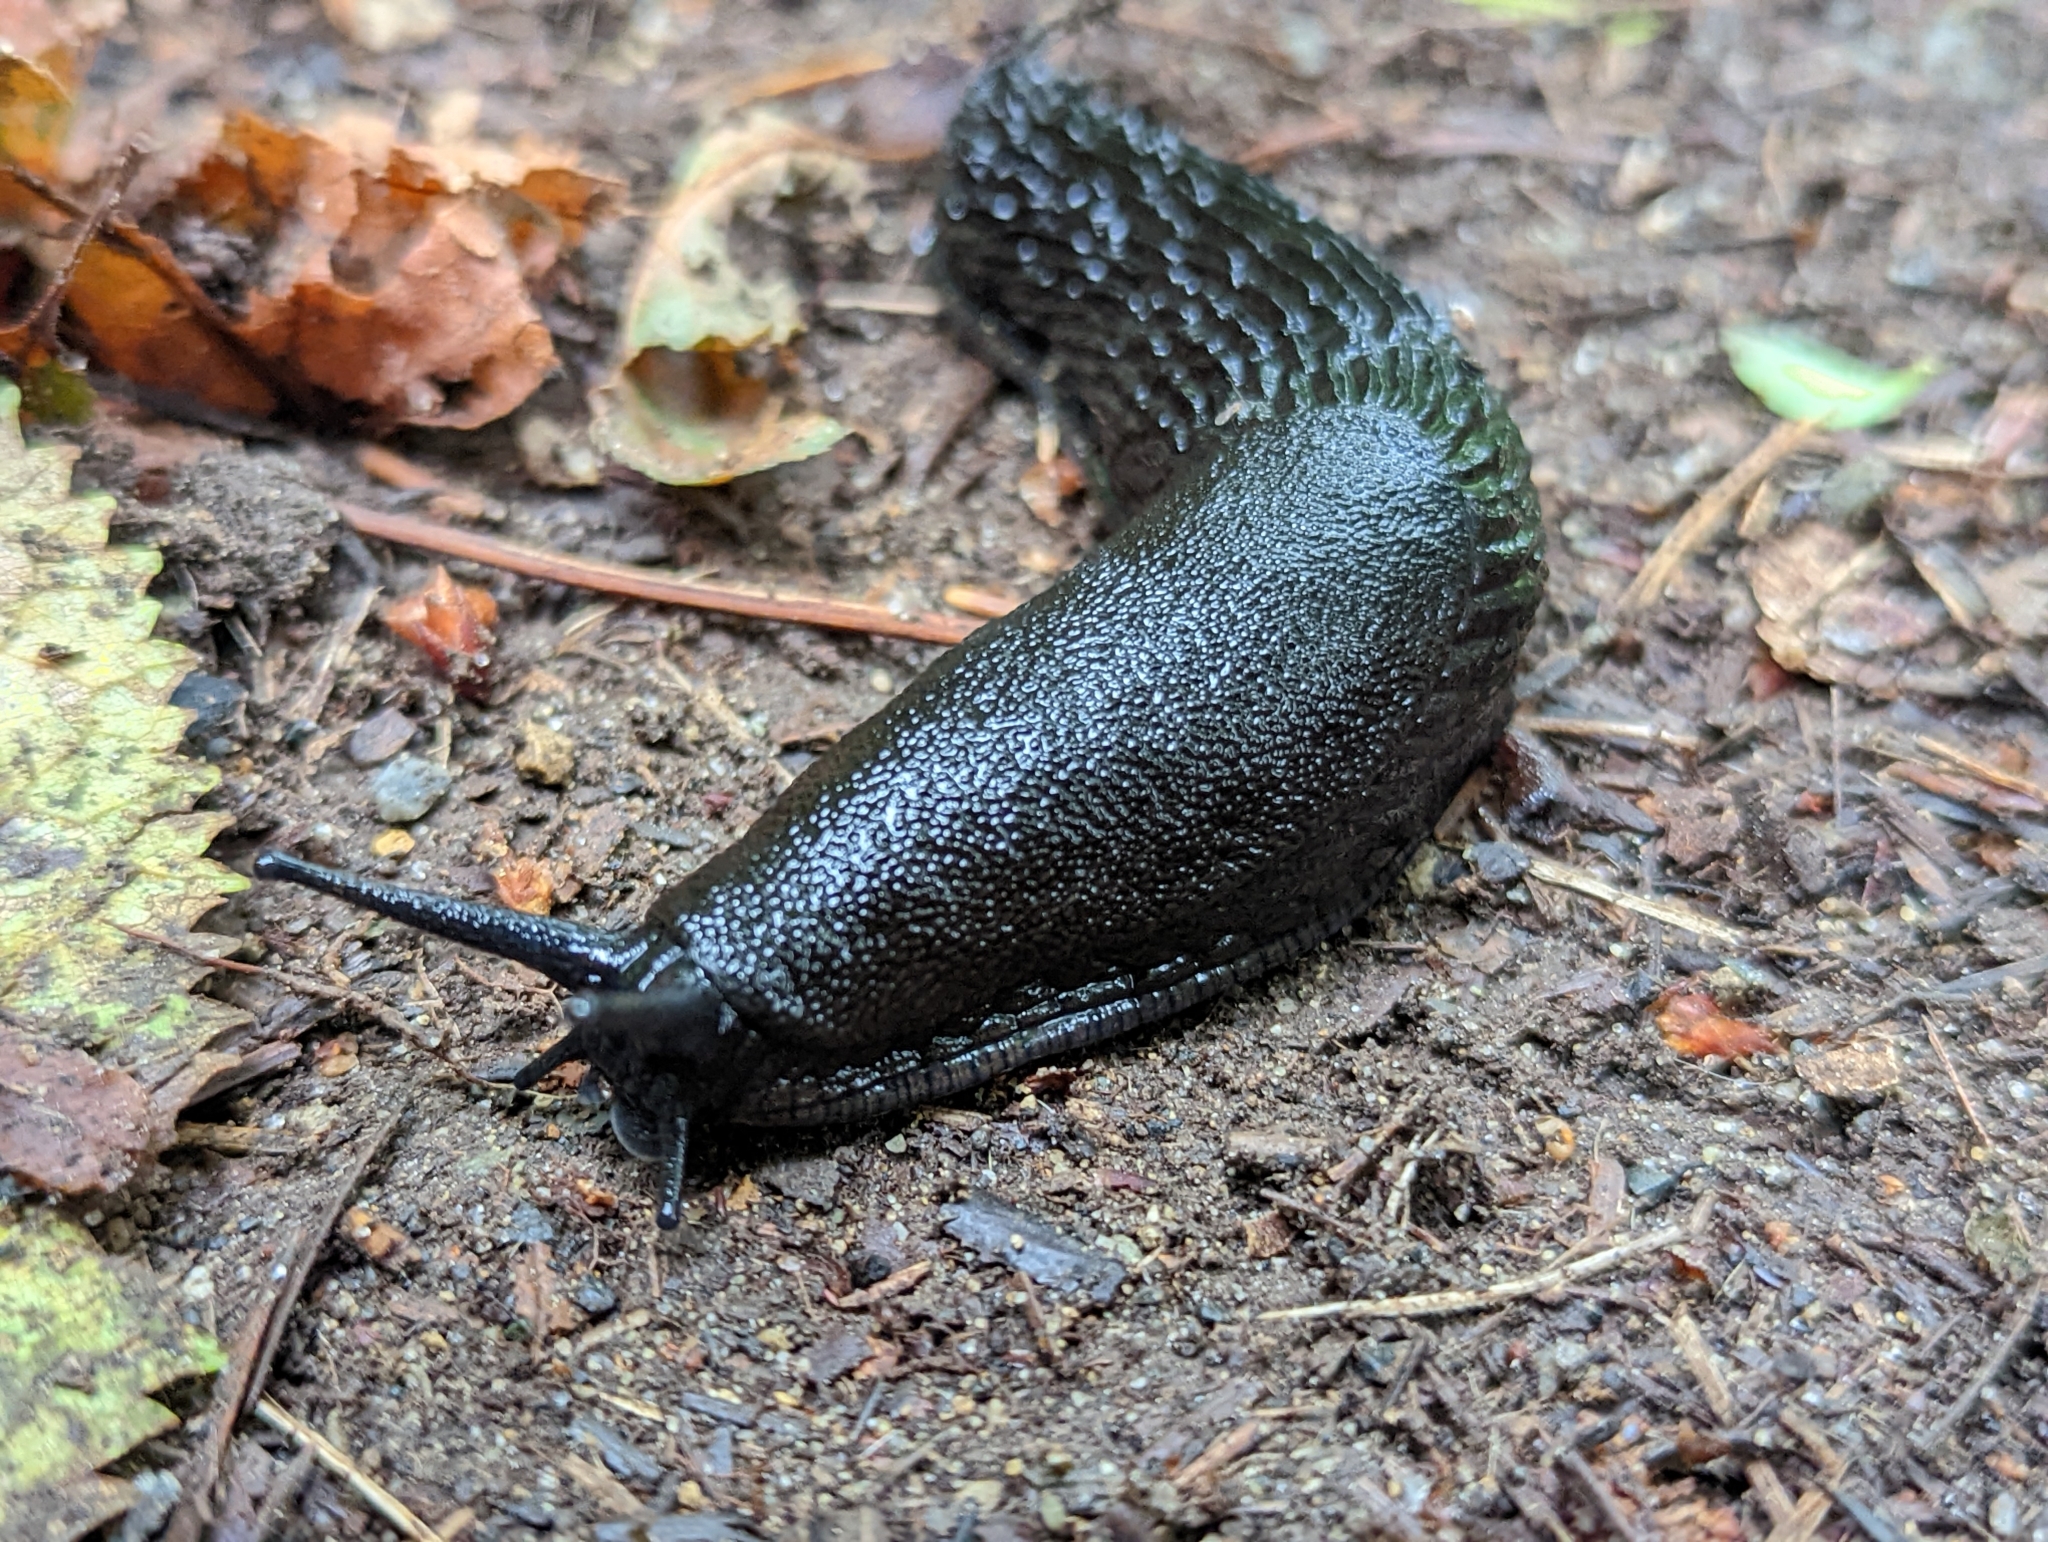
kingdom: Animalia
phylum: Mollusca
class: Gastropoda
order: Stylommatophora
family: Arionidae
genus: Arion
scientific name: Arion
